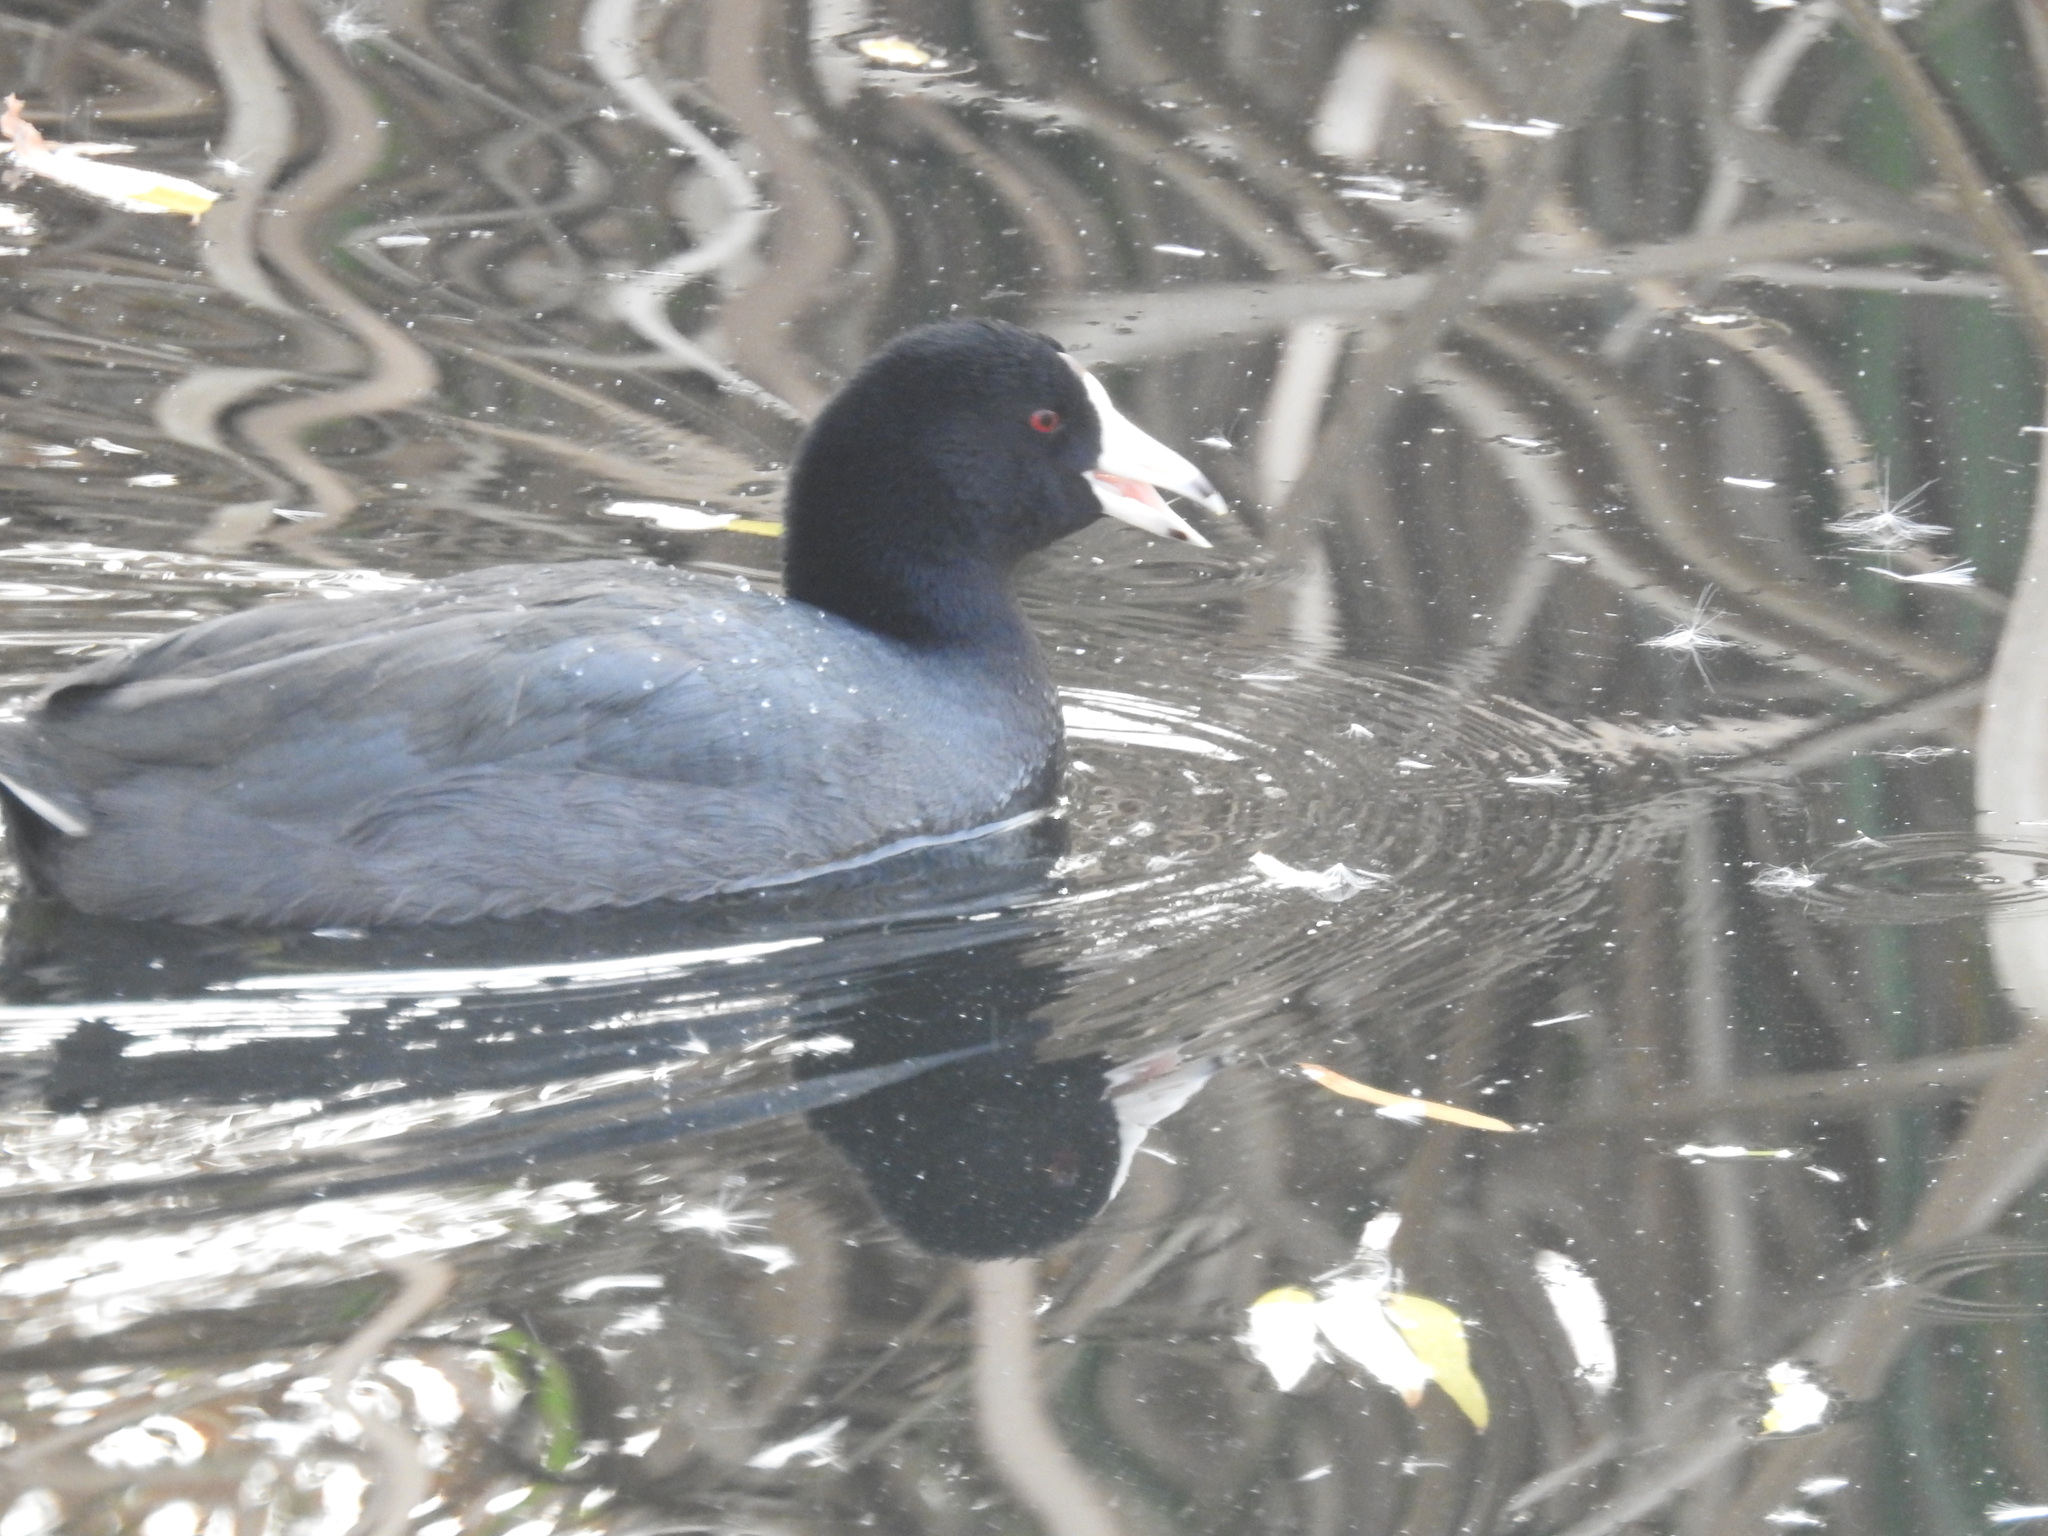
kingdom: Animalia
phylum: Chordata
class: Aves
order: Gruiformes
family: Rallidae
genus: Fulica
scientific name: Fulica americana
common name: American coot
